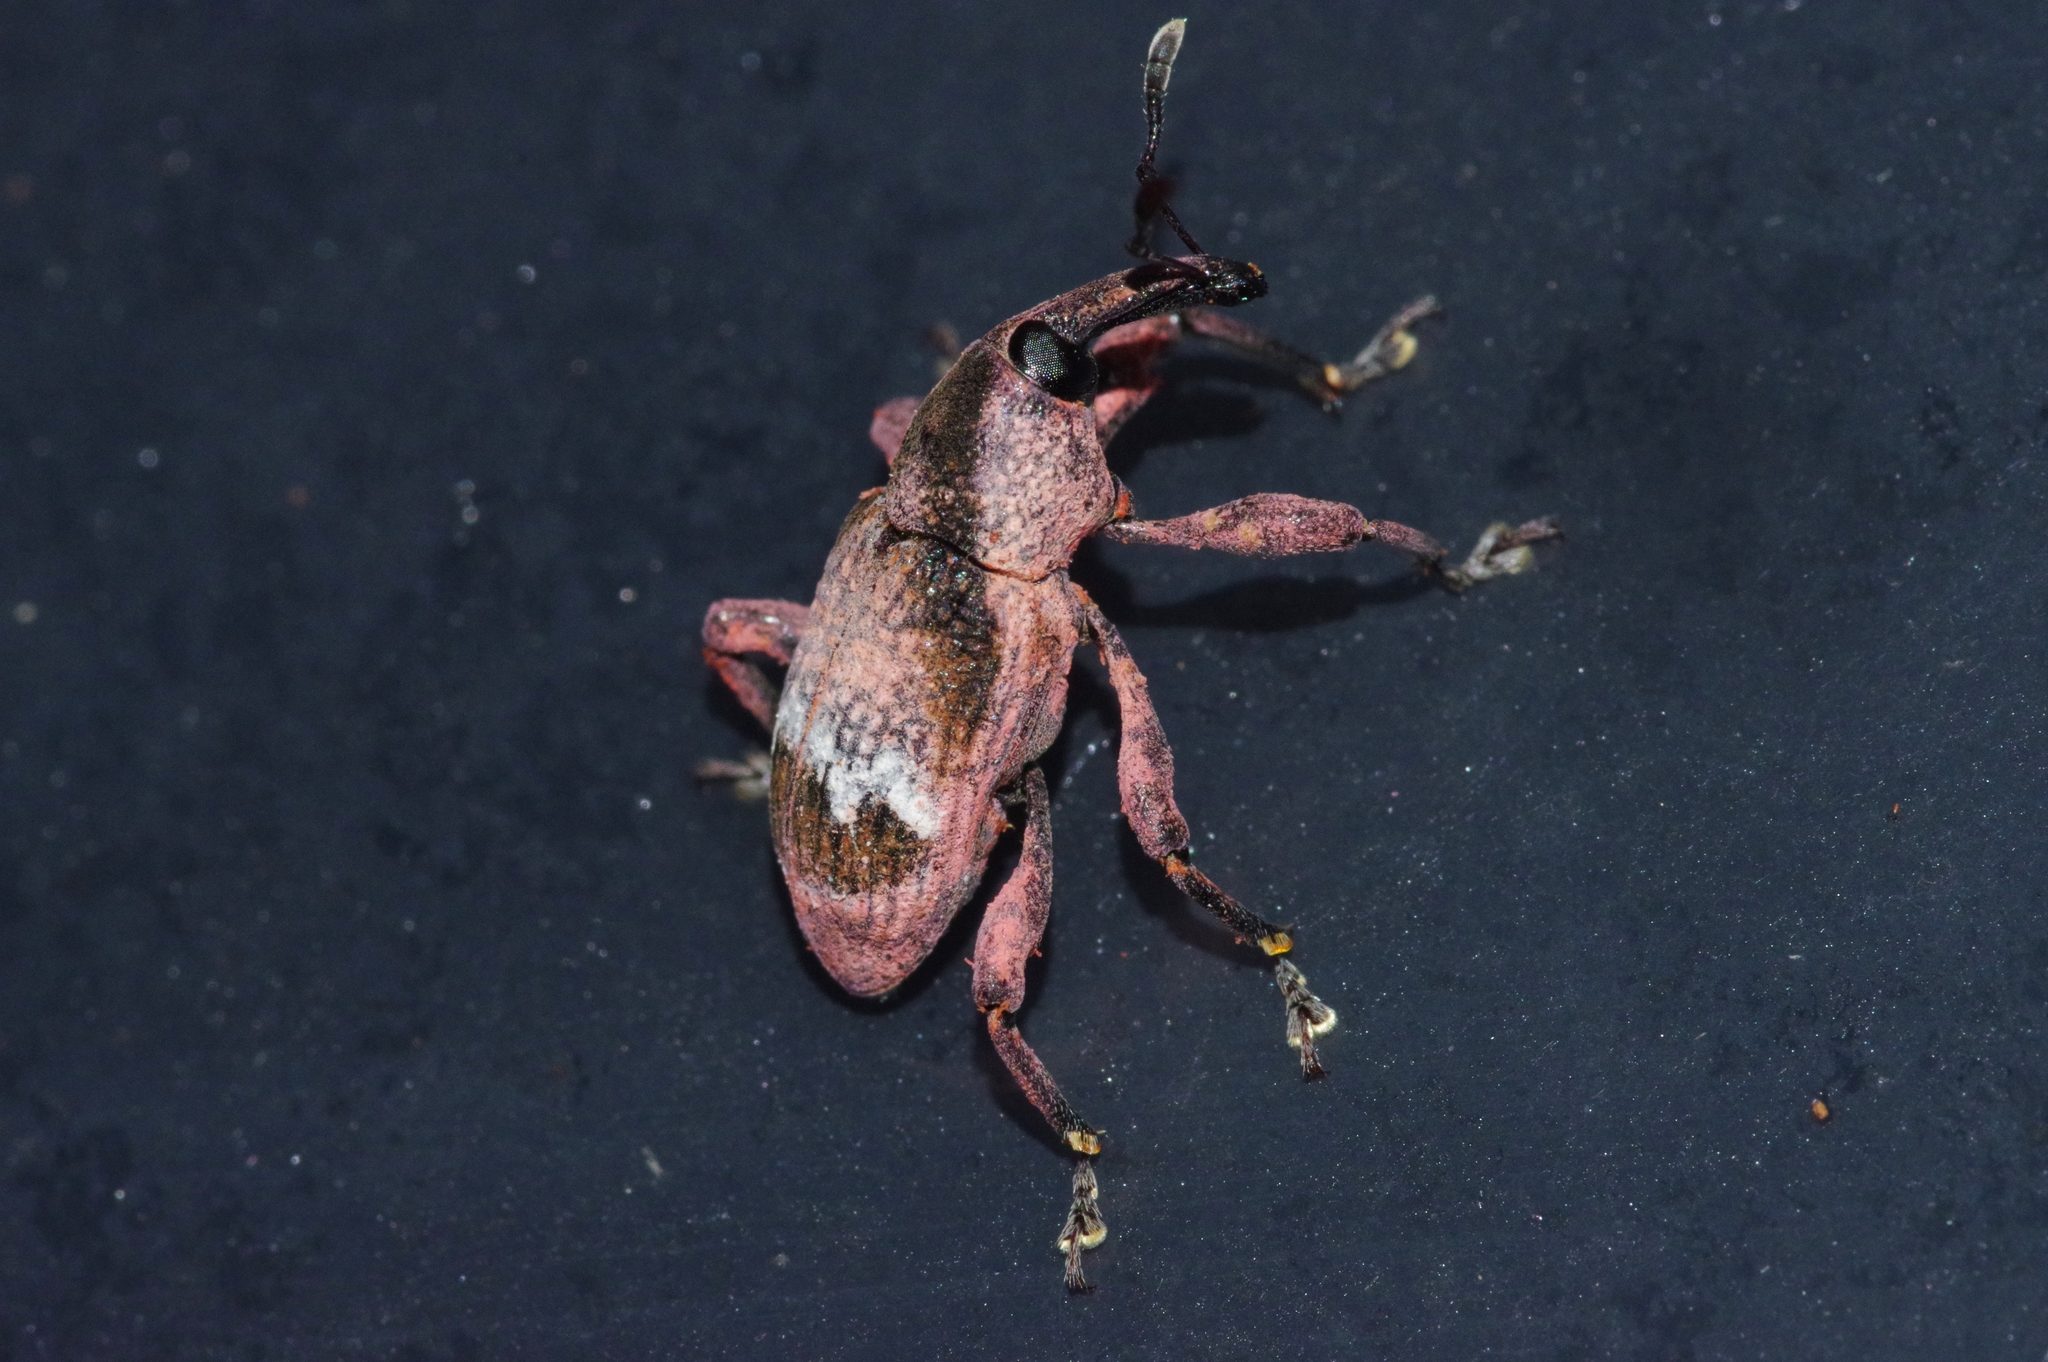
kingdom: Animalia
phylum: Arthropoda
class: Insecta
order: Coleoptera
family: Curculionidae
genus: Aclees
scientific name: Aclees hirayamai
